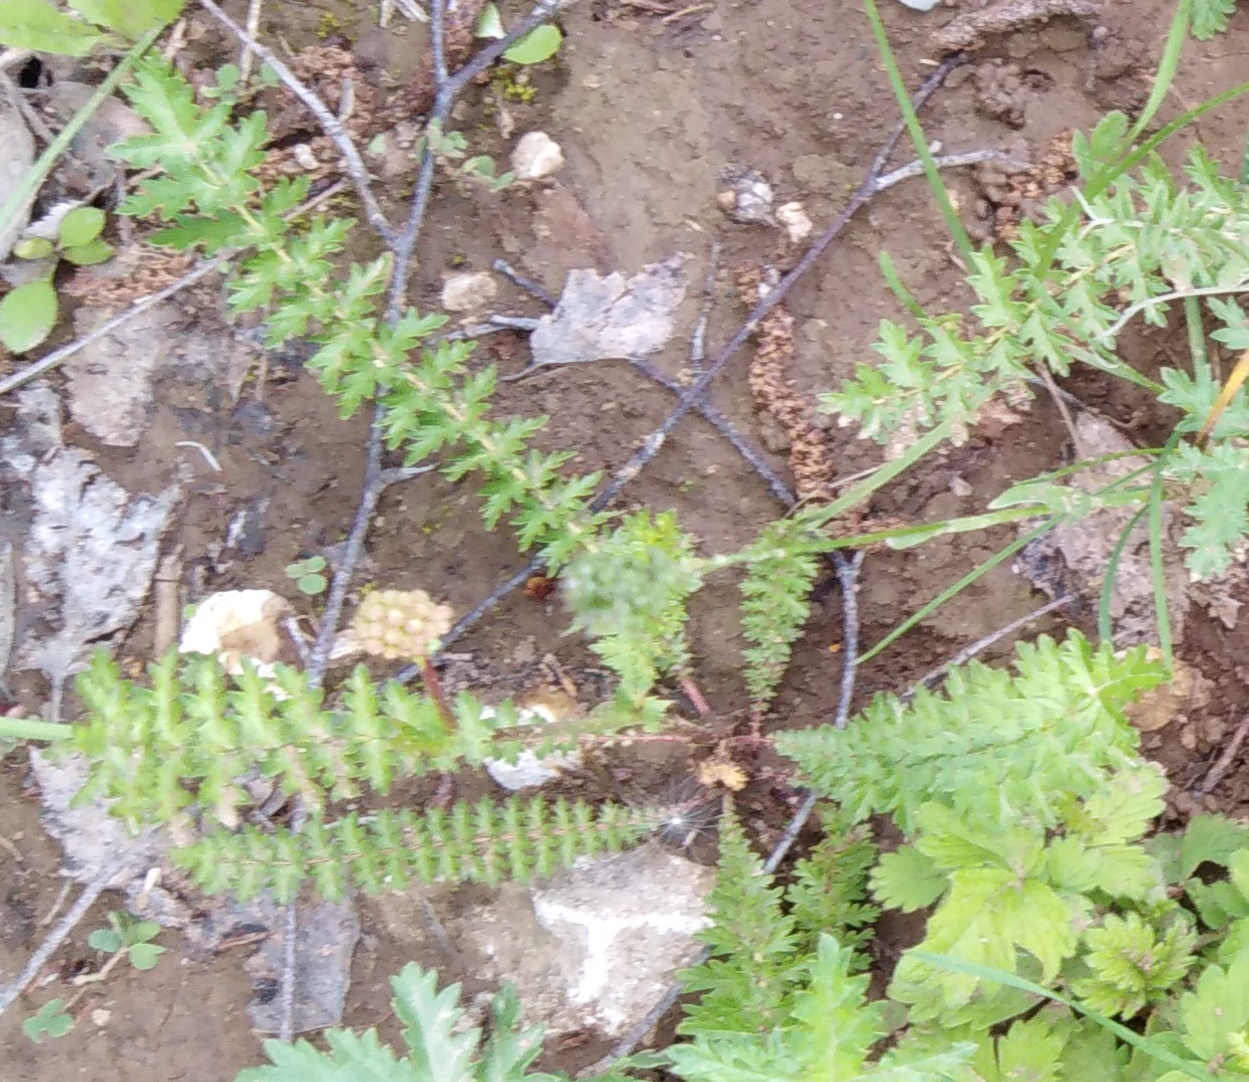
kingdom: Plantae
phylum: Tracheophyta
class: Magnoliopsida
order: Rosales
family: Rosaceae
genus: Filipendula
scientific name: Filipendula vulgaris
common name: Dropwort
